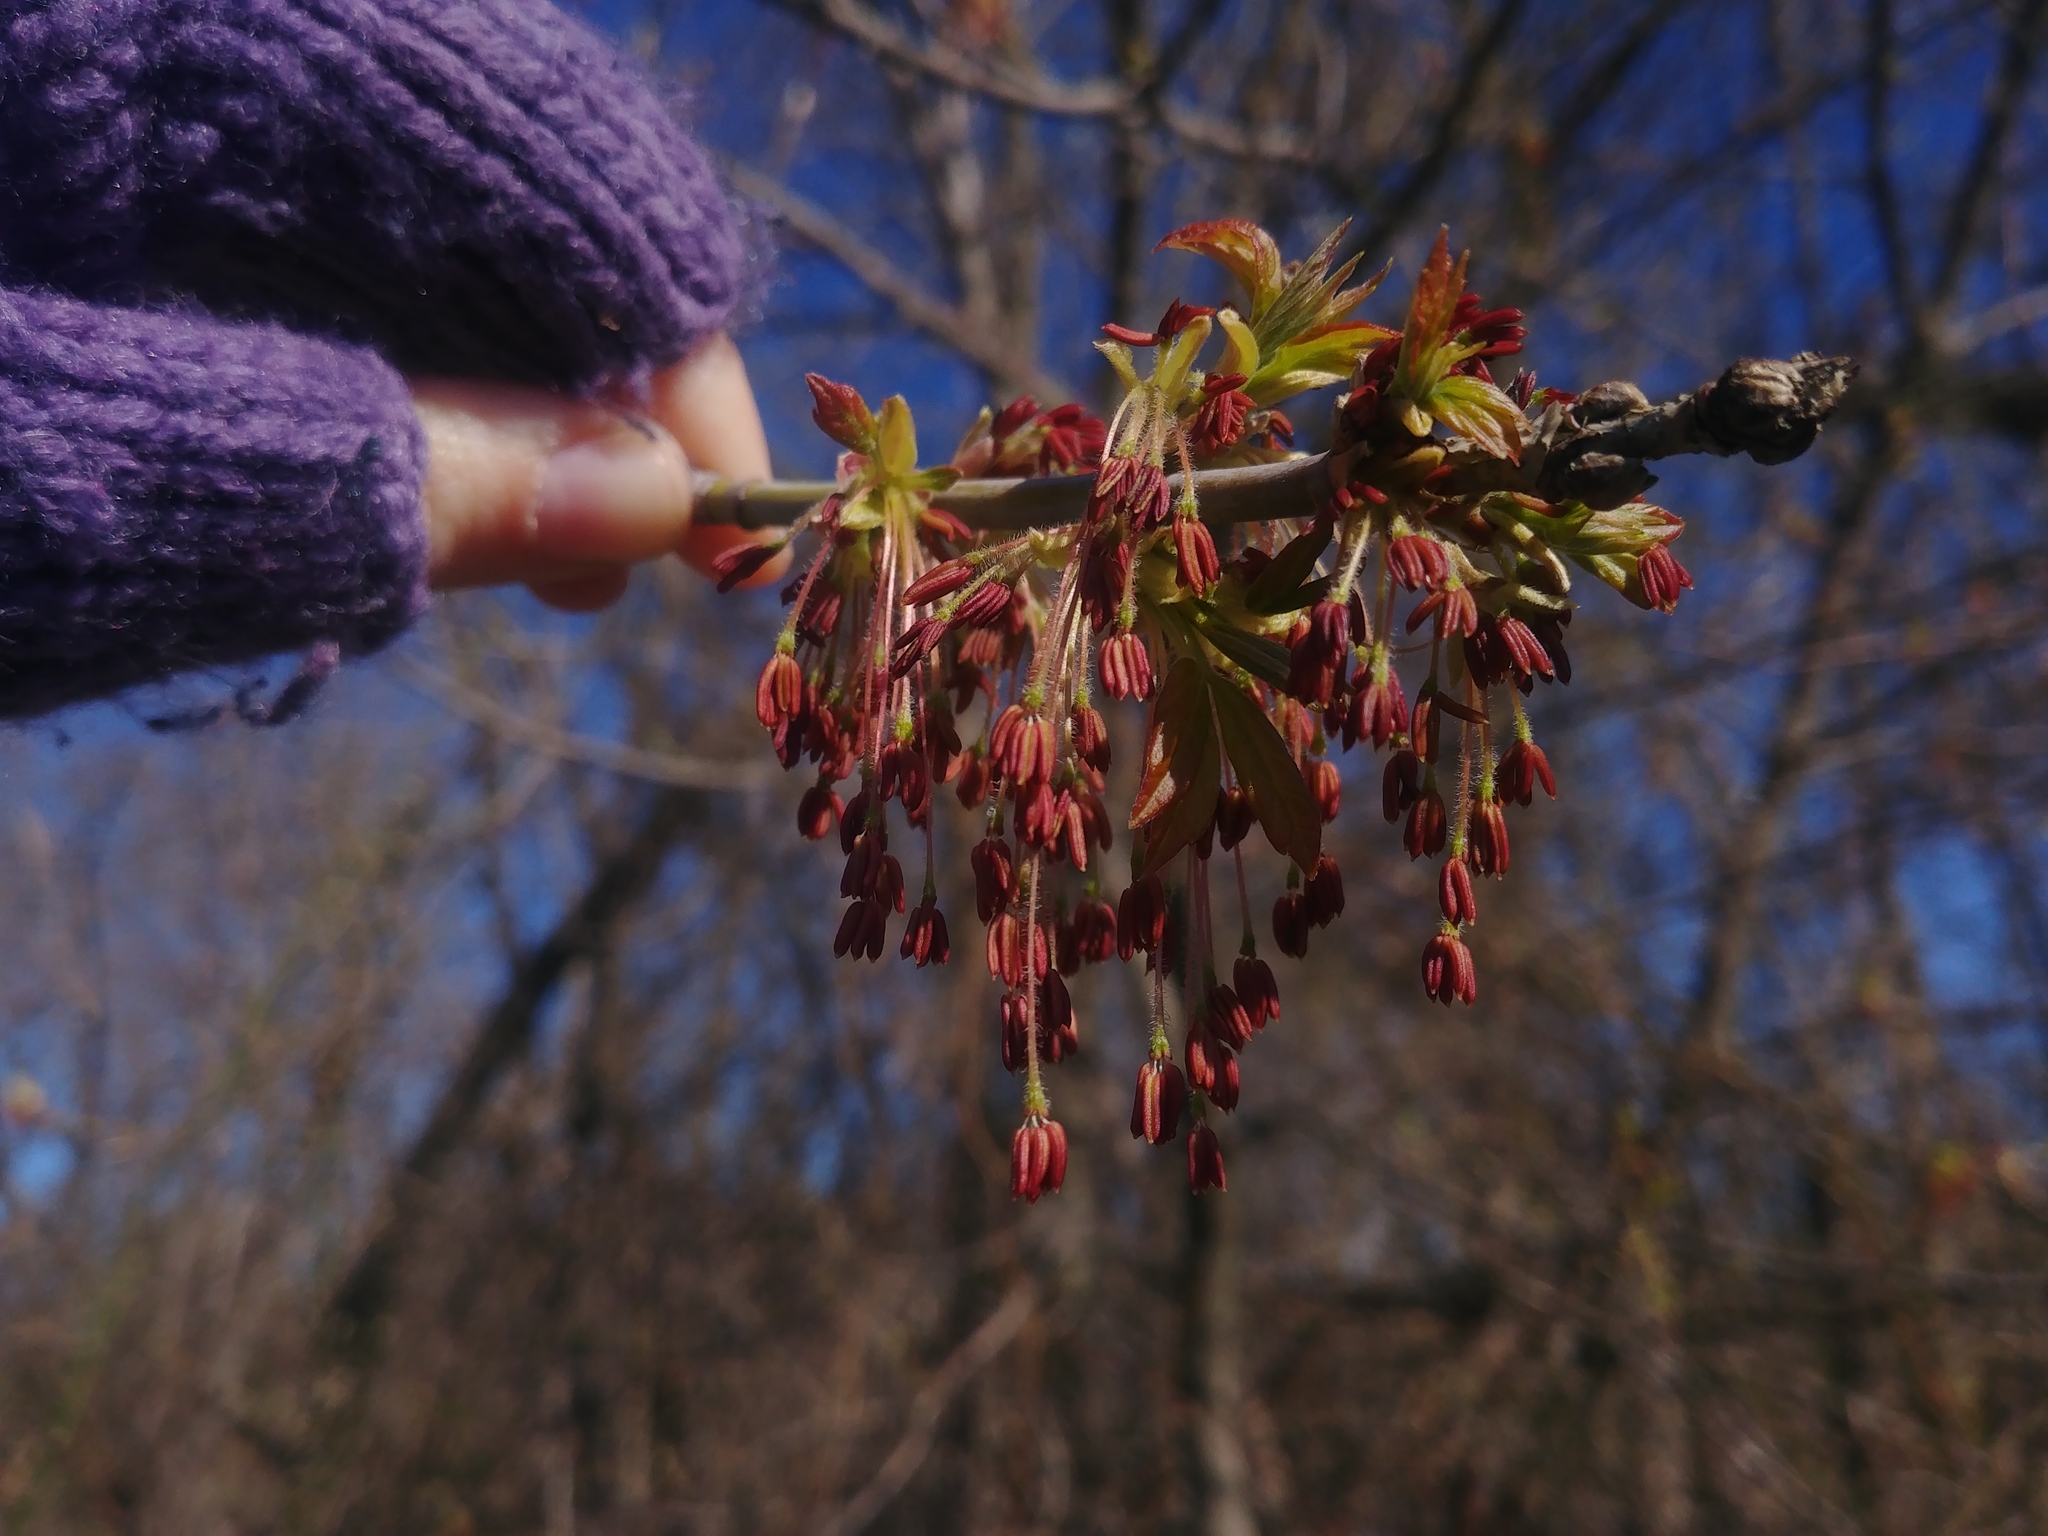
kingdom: Plantae
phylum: Tracheophyta
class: Magnoliopsida
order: Sapindales
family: Sapindaceae
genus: Acer
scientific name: Acer negundo
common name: Ashleaf maple
